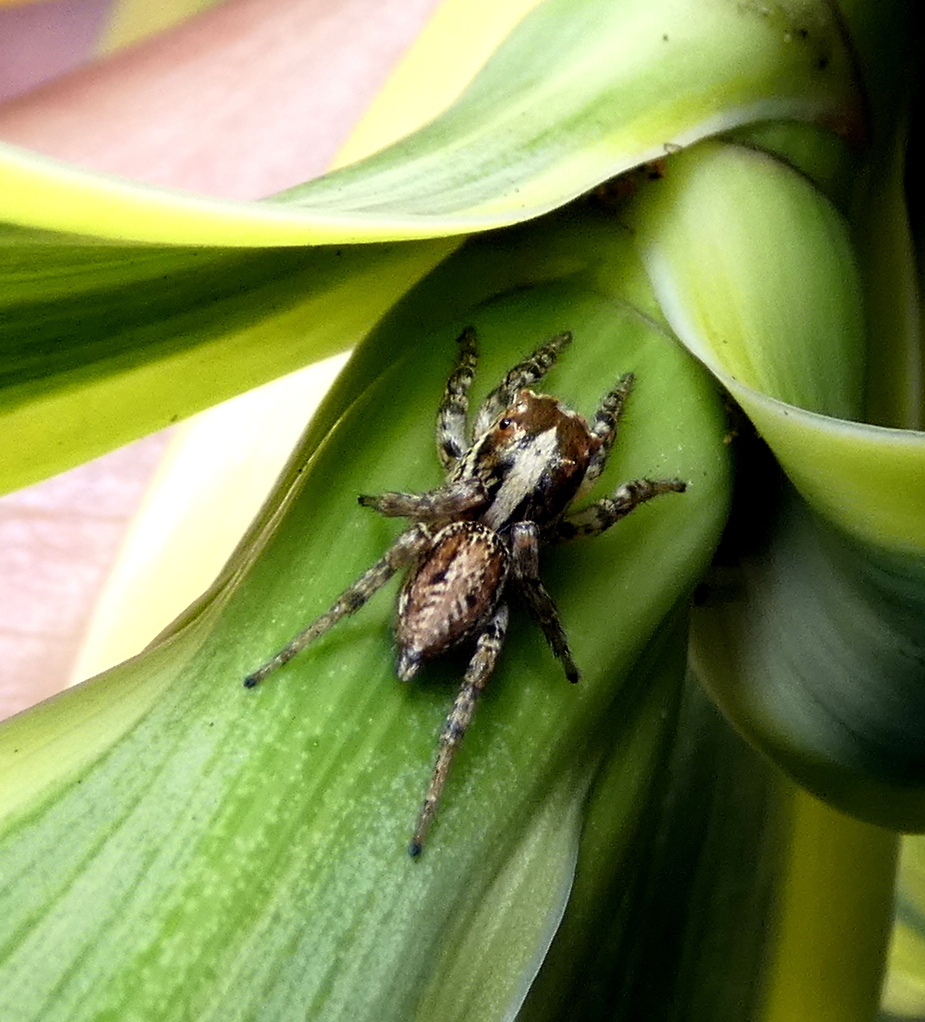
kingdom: Animalia
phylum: Arthropoda
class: Arachnida
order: Araneae
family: Salticidae
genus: Leptofreya
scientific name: Leptofreya ambigua
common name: Jumping spider
